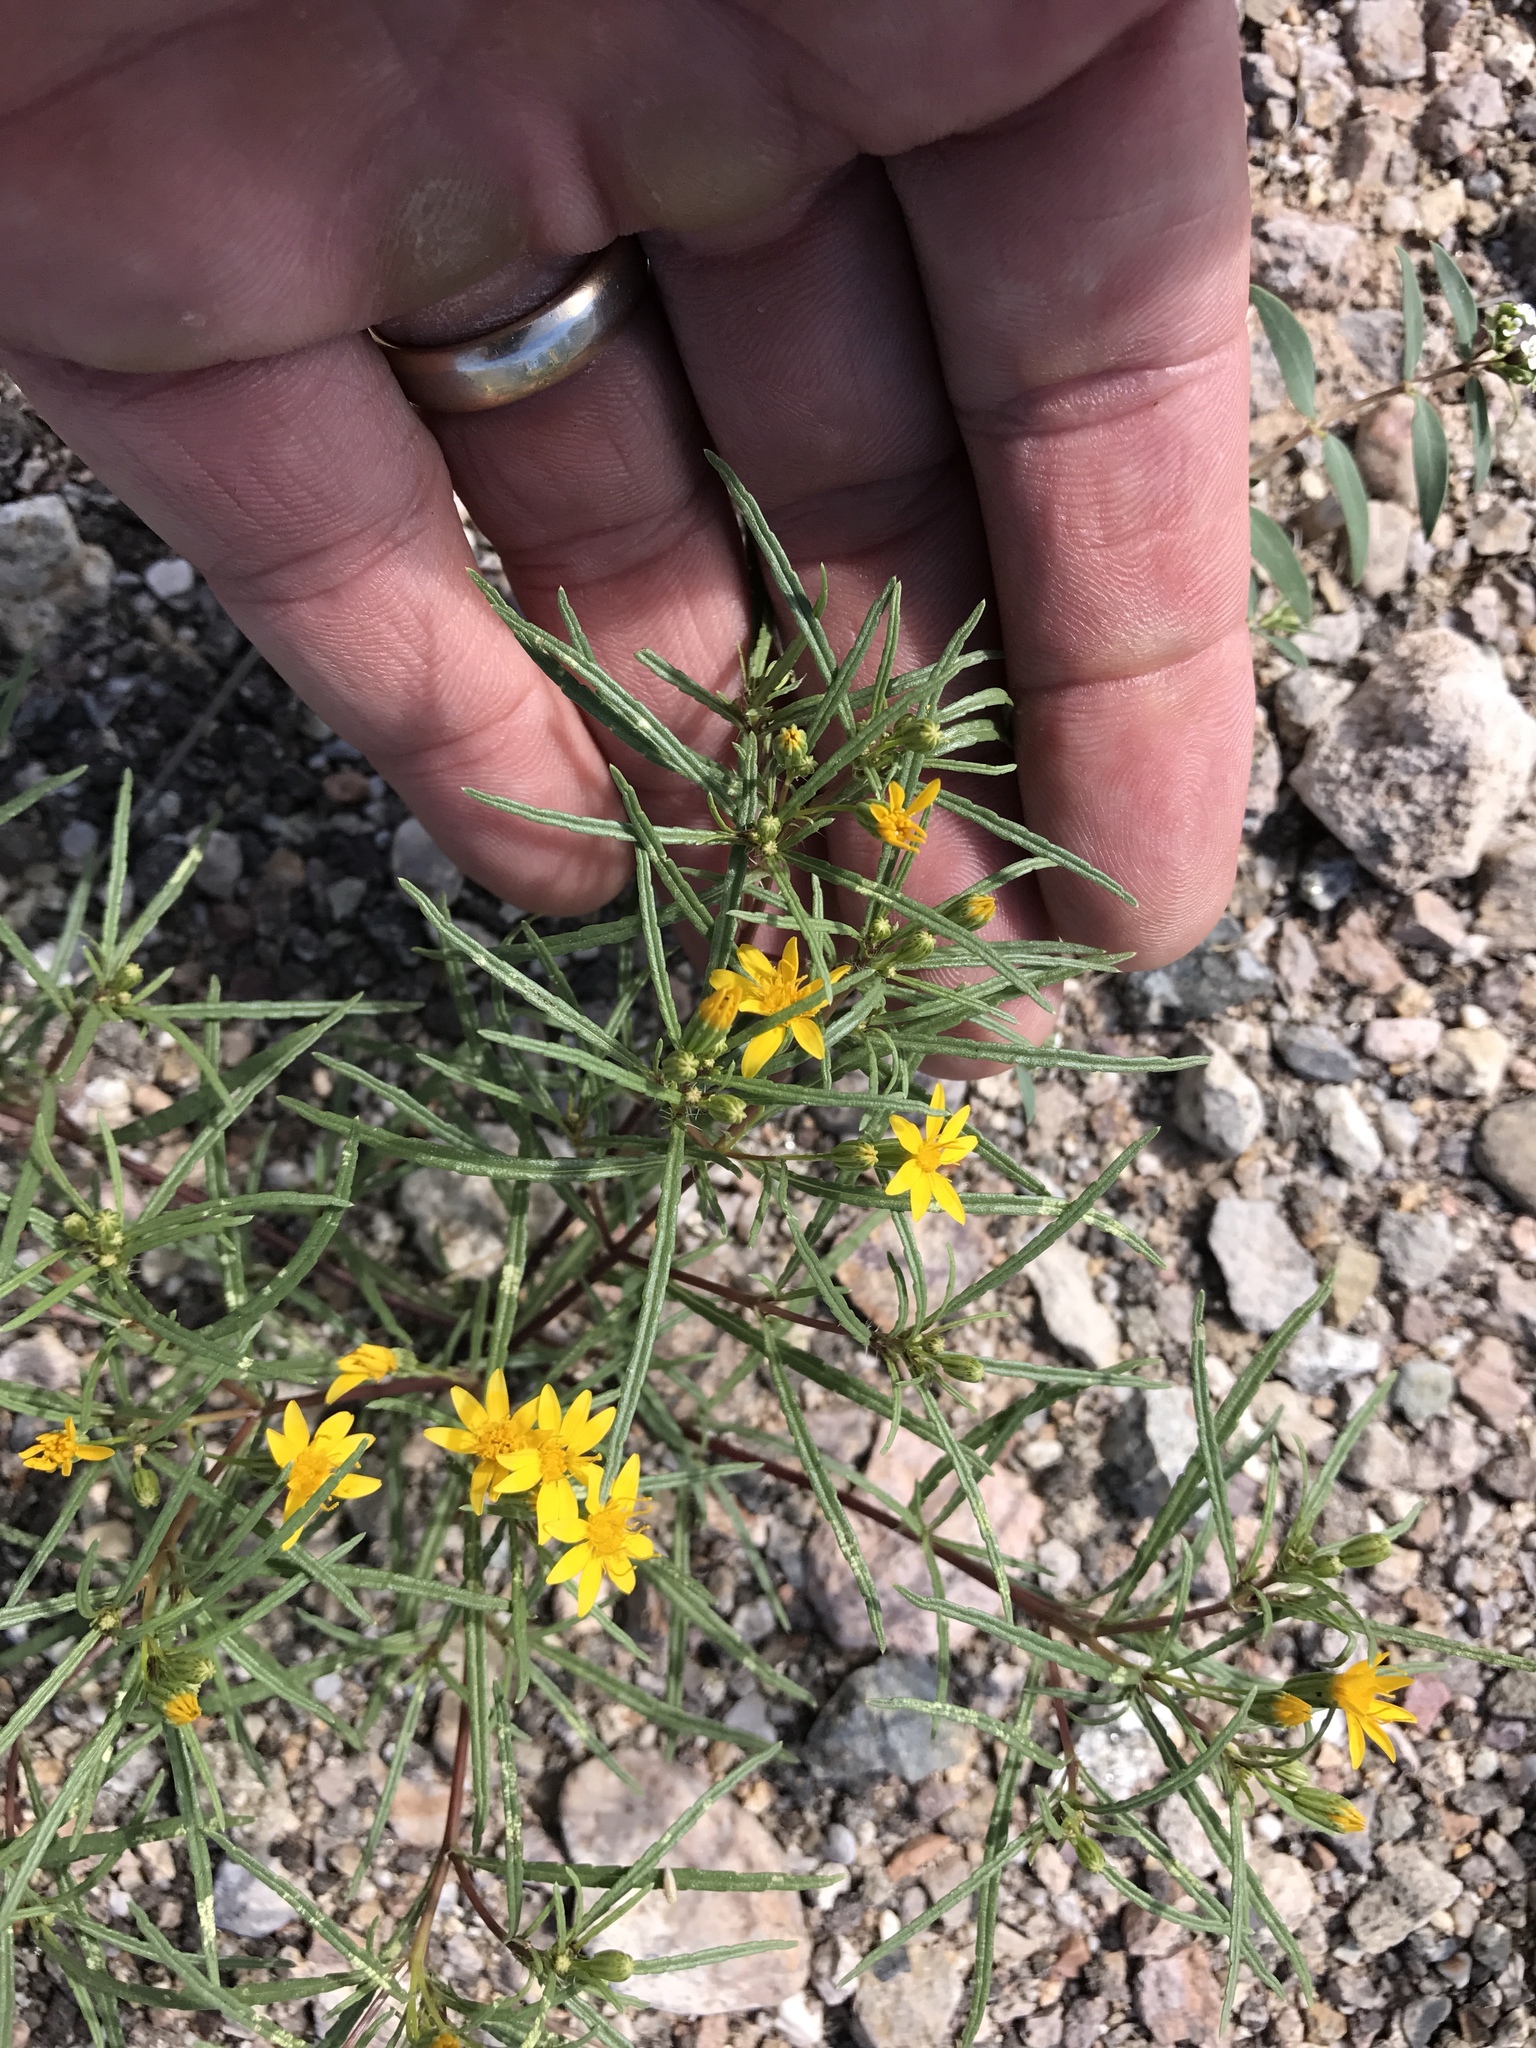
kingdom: Plantae
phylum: Tracheophyta
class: Magnoliopsida
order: Asterales
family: Asteraceae
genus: Pectis
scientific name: Pectis papposa
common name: Many-bristle chinchweed
